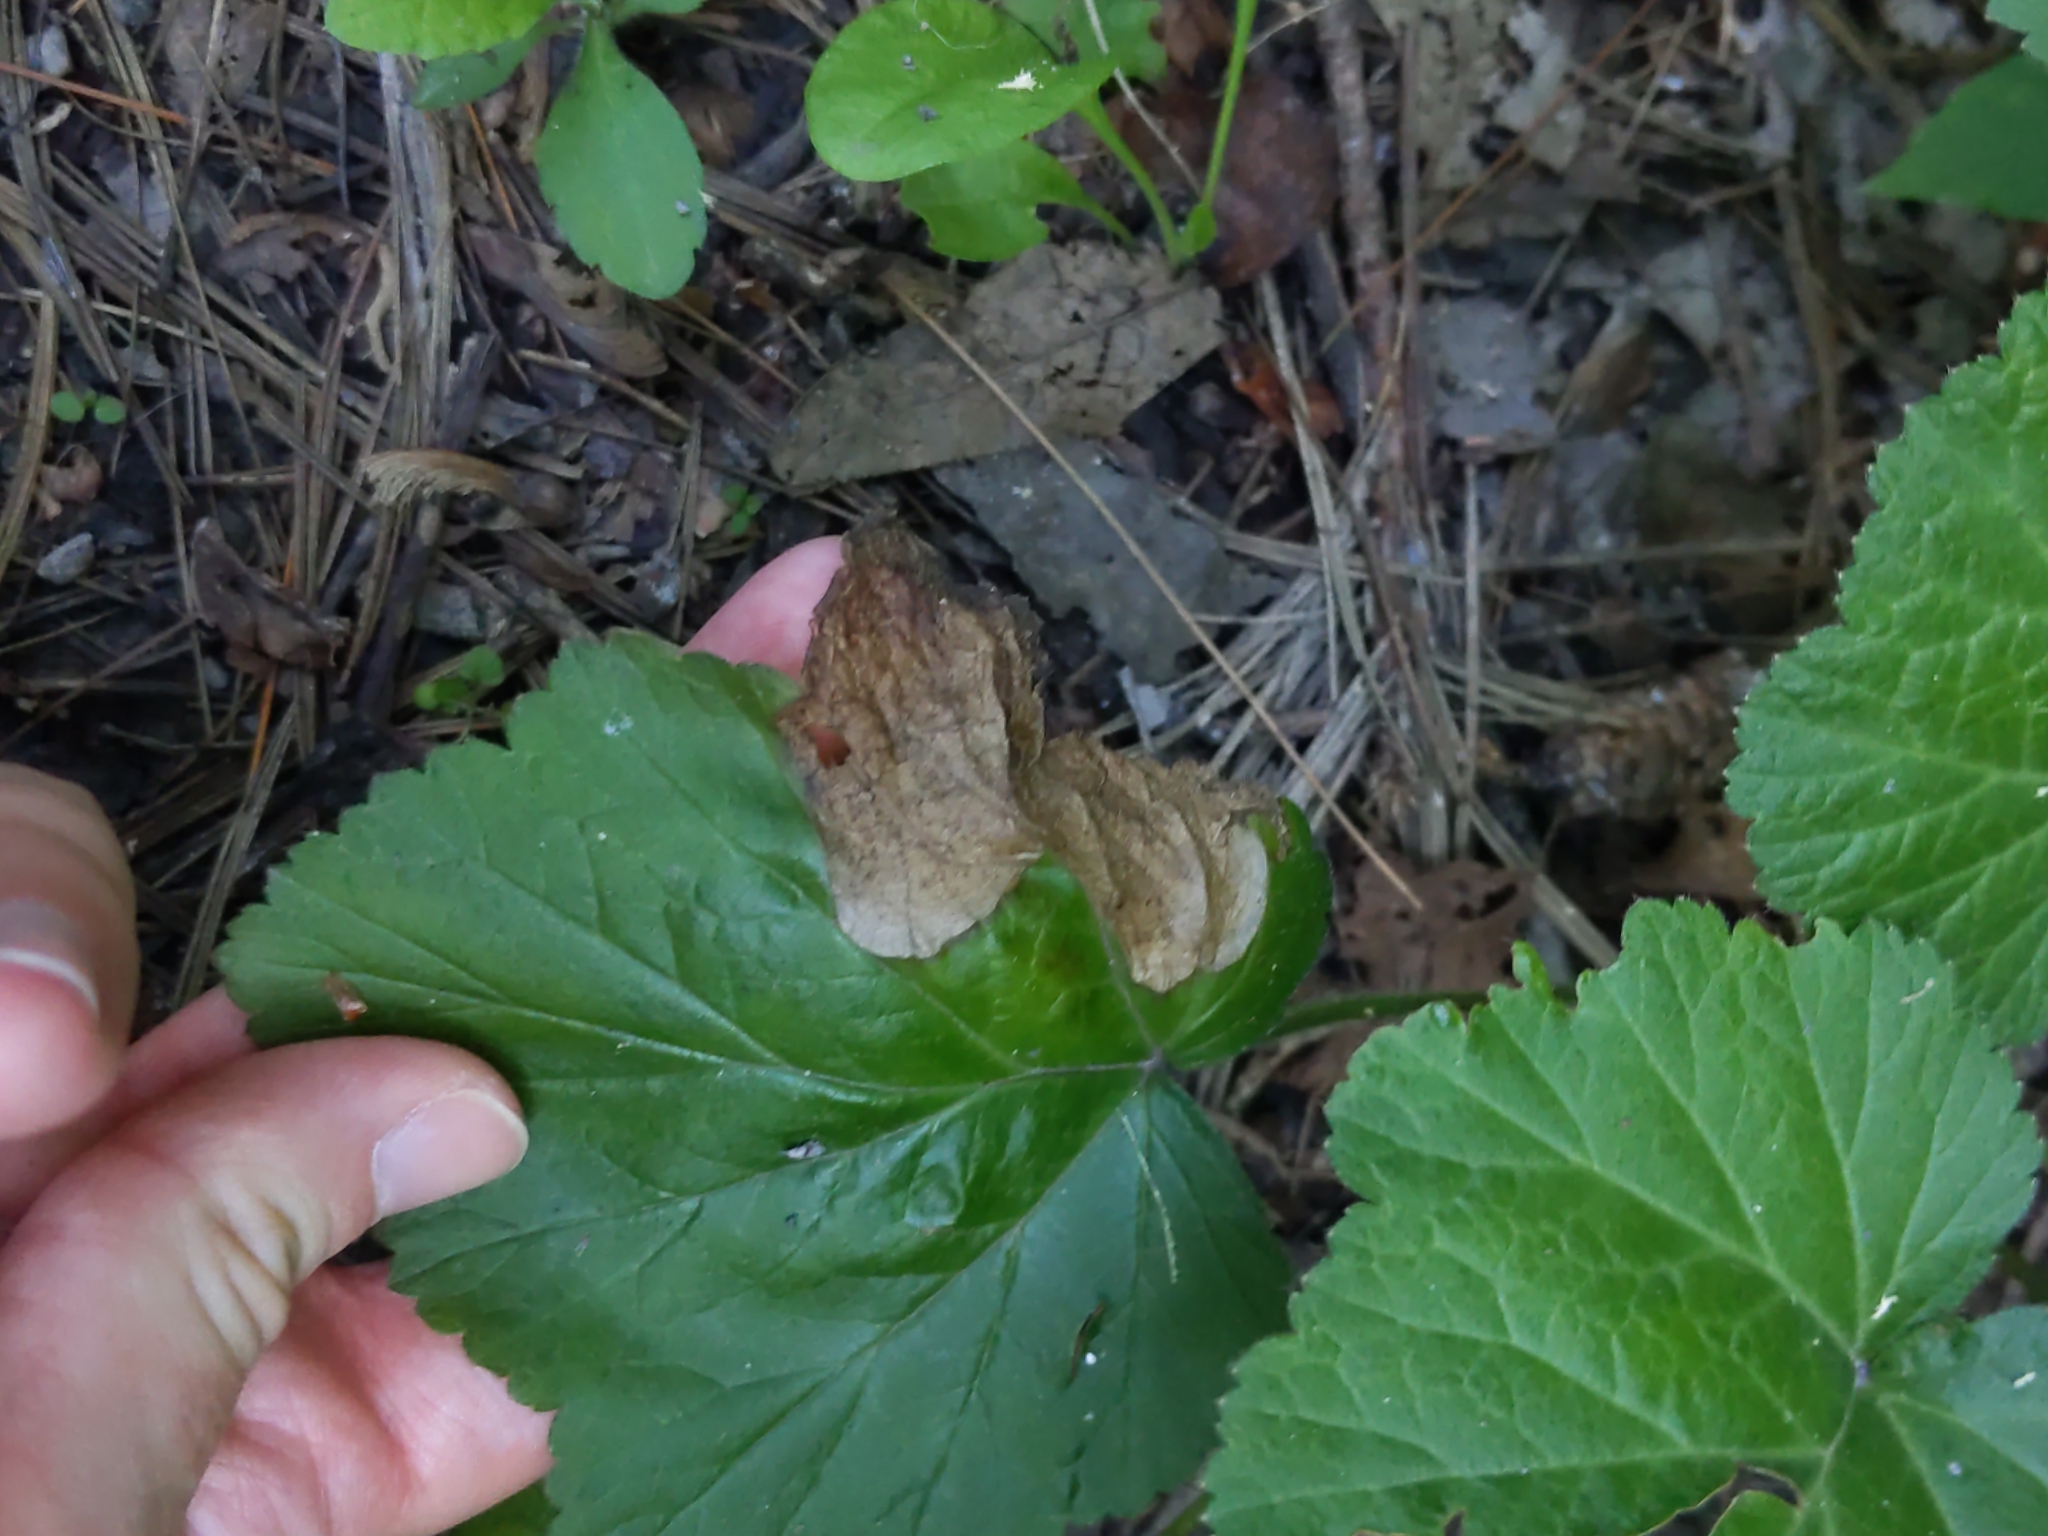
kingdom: Animalia
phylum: Arthropoda
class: Insecta
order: Hymenoptera
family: Tenthredinidae
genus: Metallus
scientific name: Metallus lanceolatus
